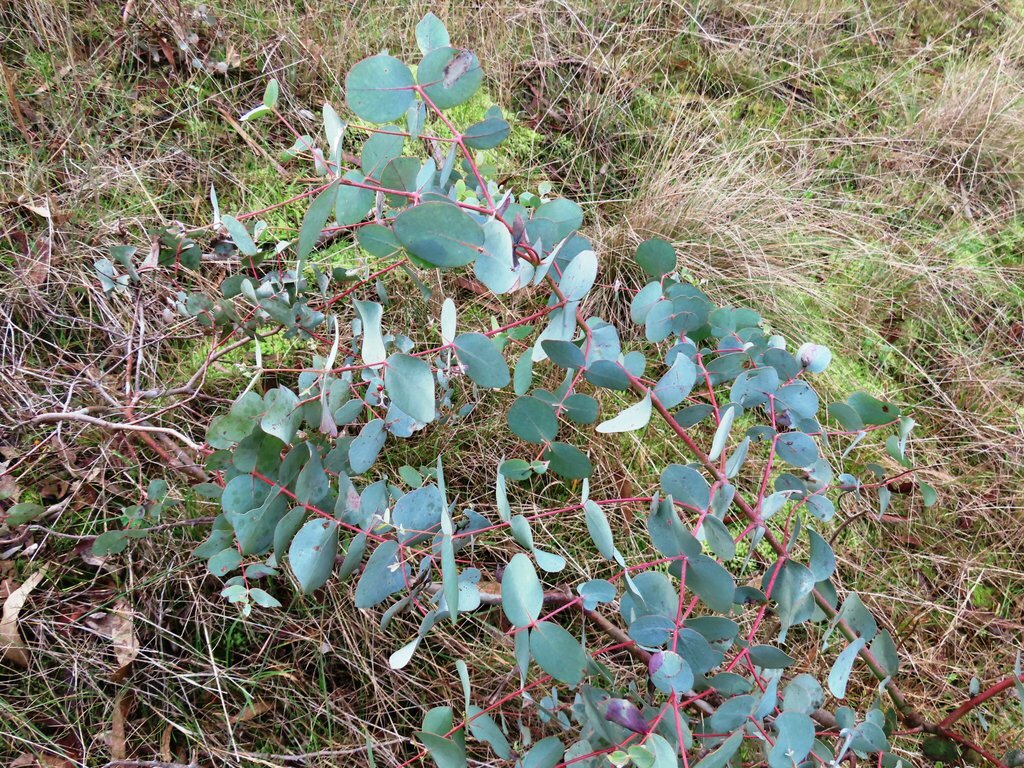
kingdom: Plantae
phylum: Tracheophyta
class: Magnoliopsida
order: Myrtales
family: Myrtaceae
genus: Eucalyptus
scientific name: Eucalyptus rubida
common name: Candlebark
